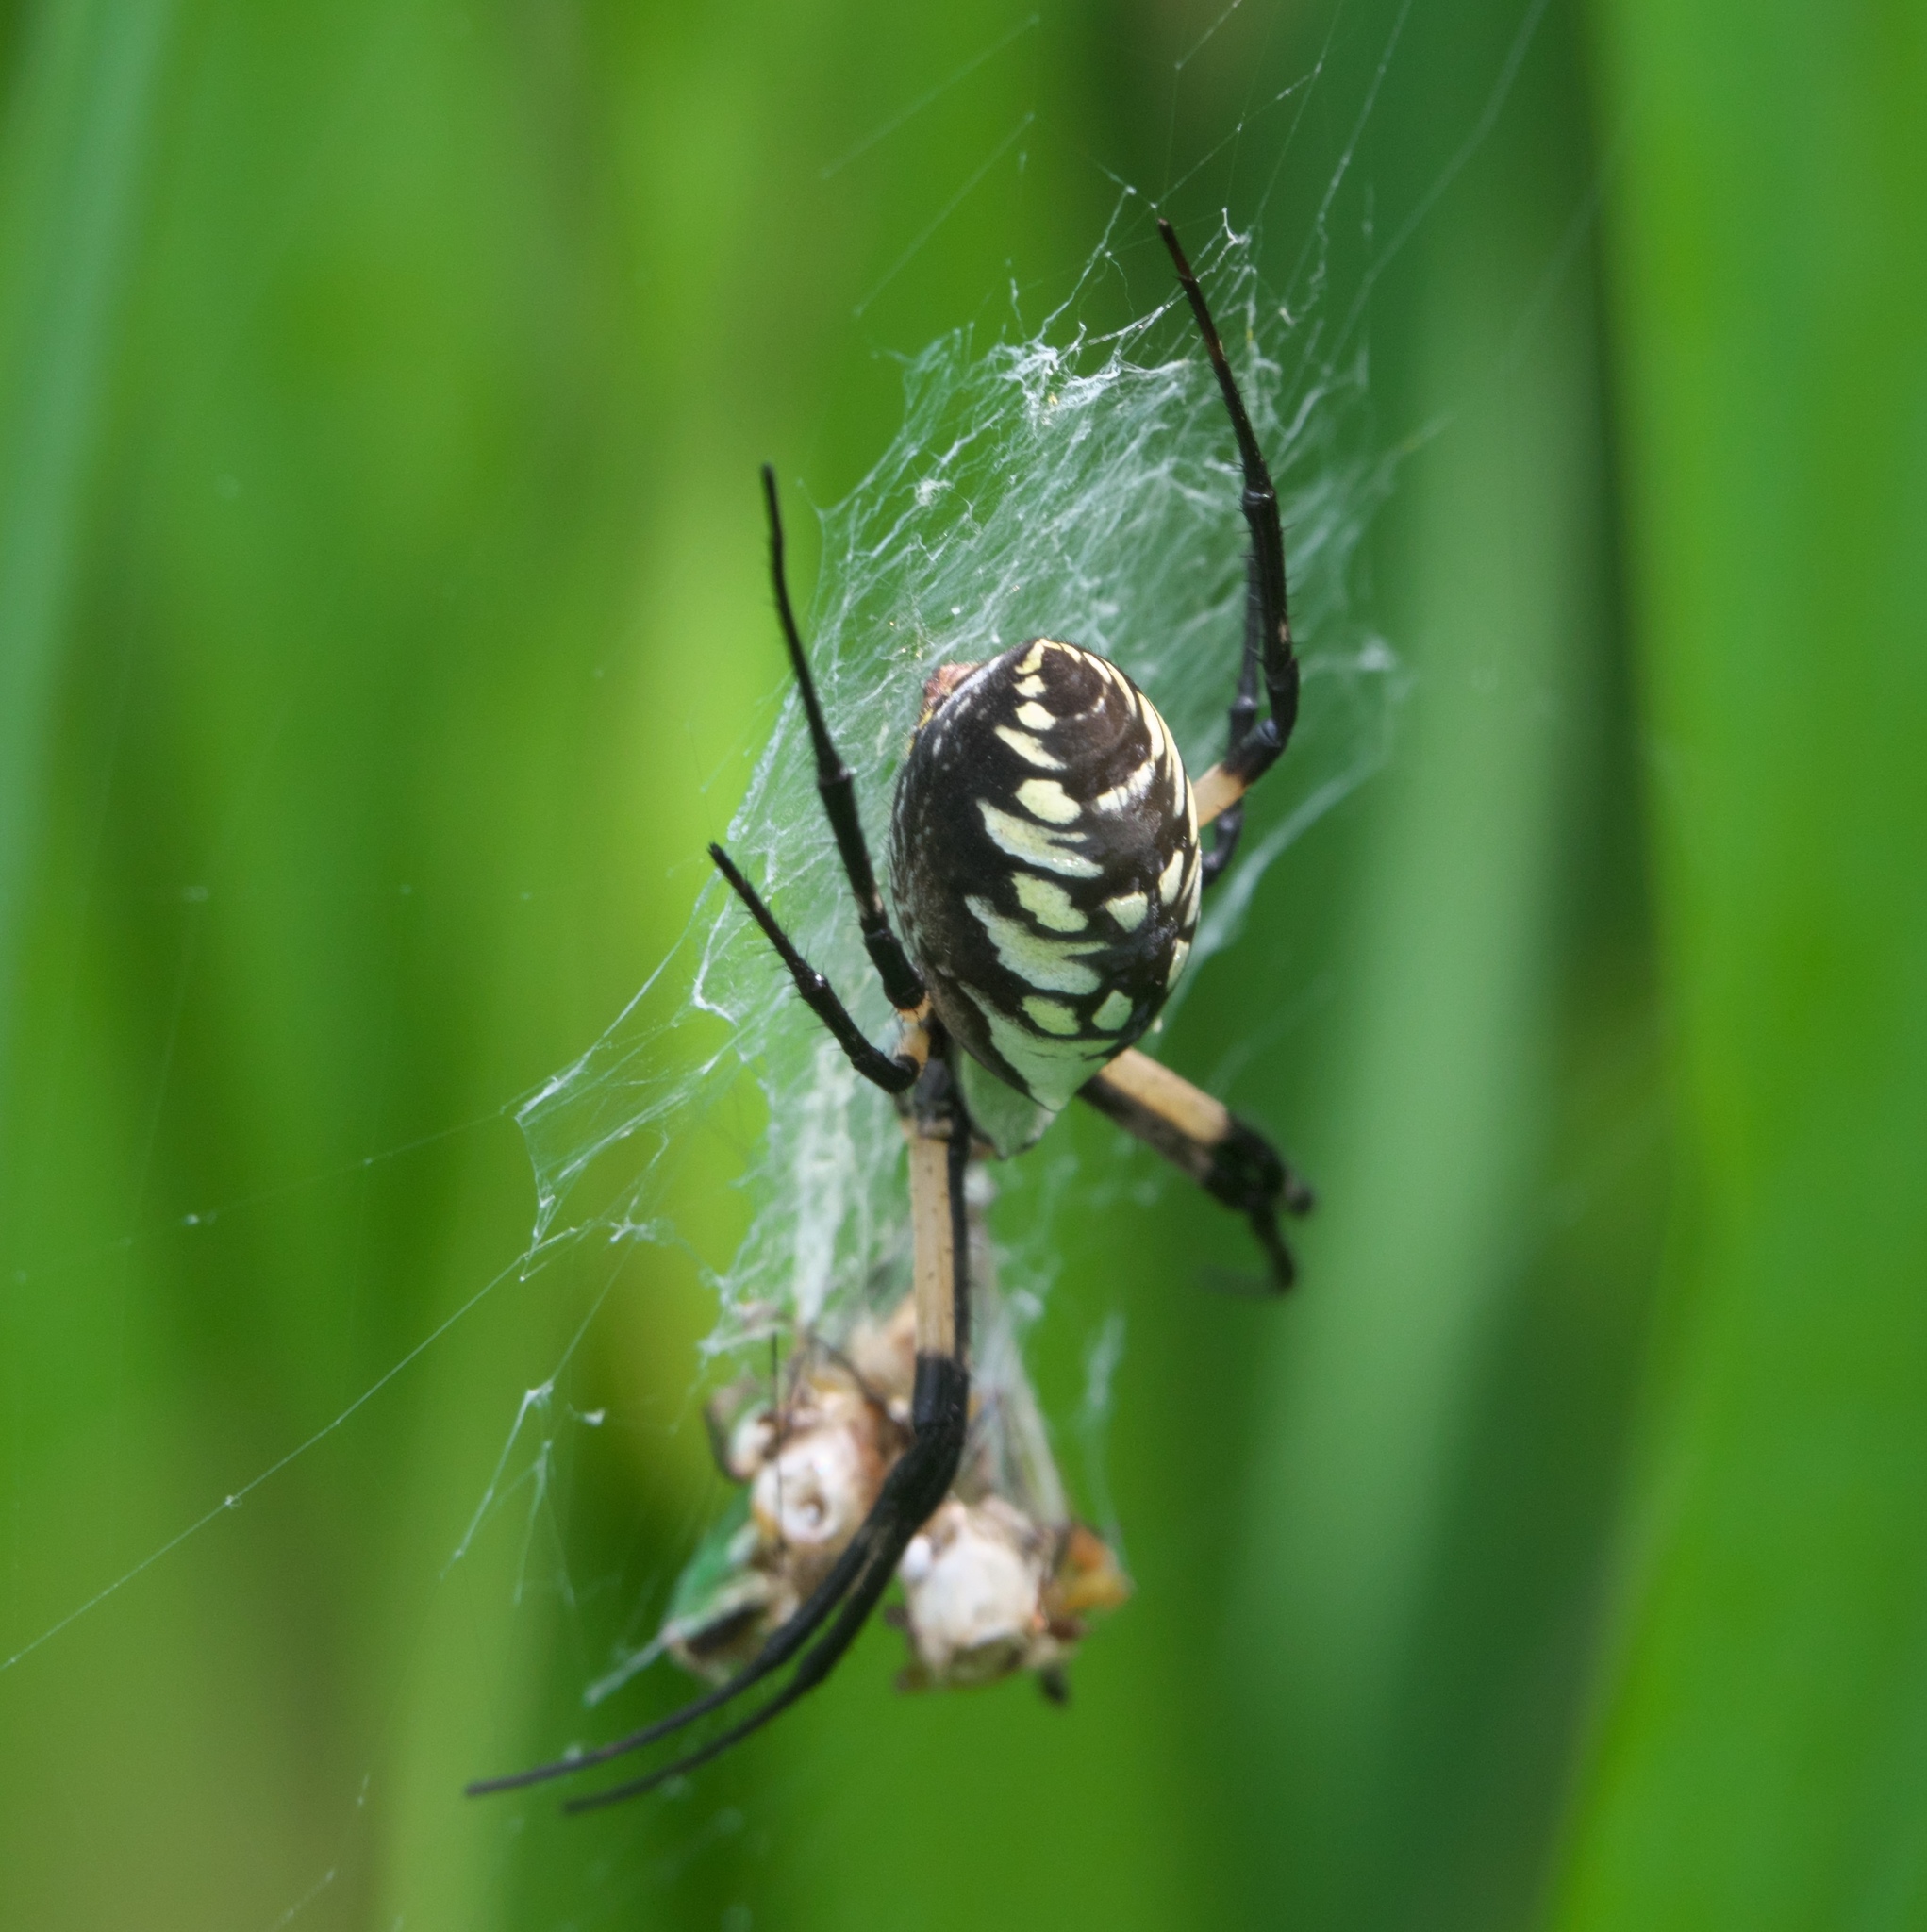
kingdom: Animalia
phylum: Arthropoda
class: Arachnida
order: Araneae
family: Araneidae
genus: Argiope
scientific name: Argiope aurantia
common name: Orb weavers
